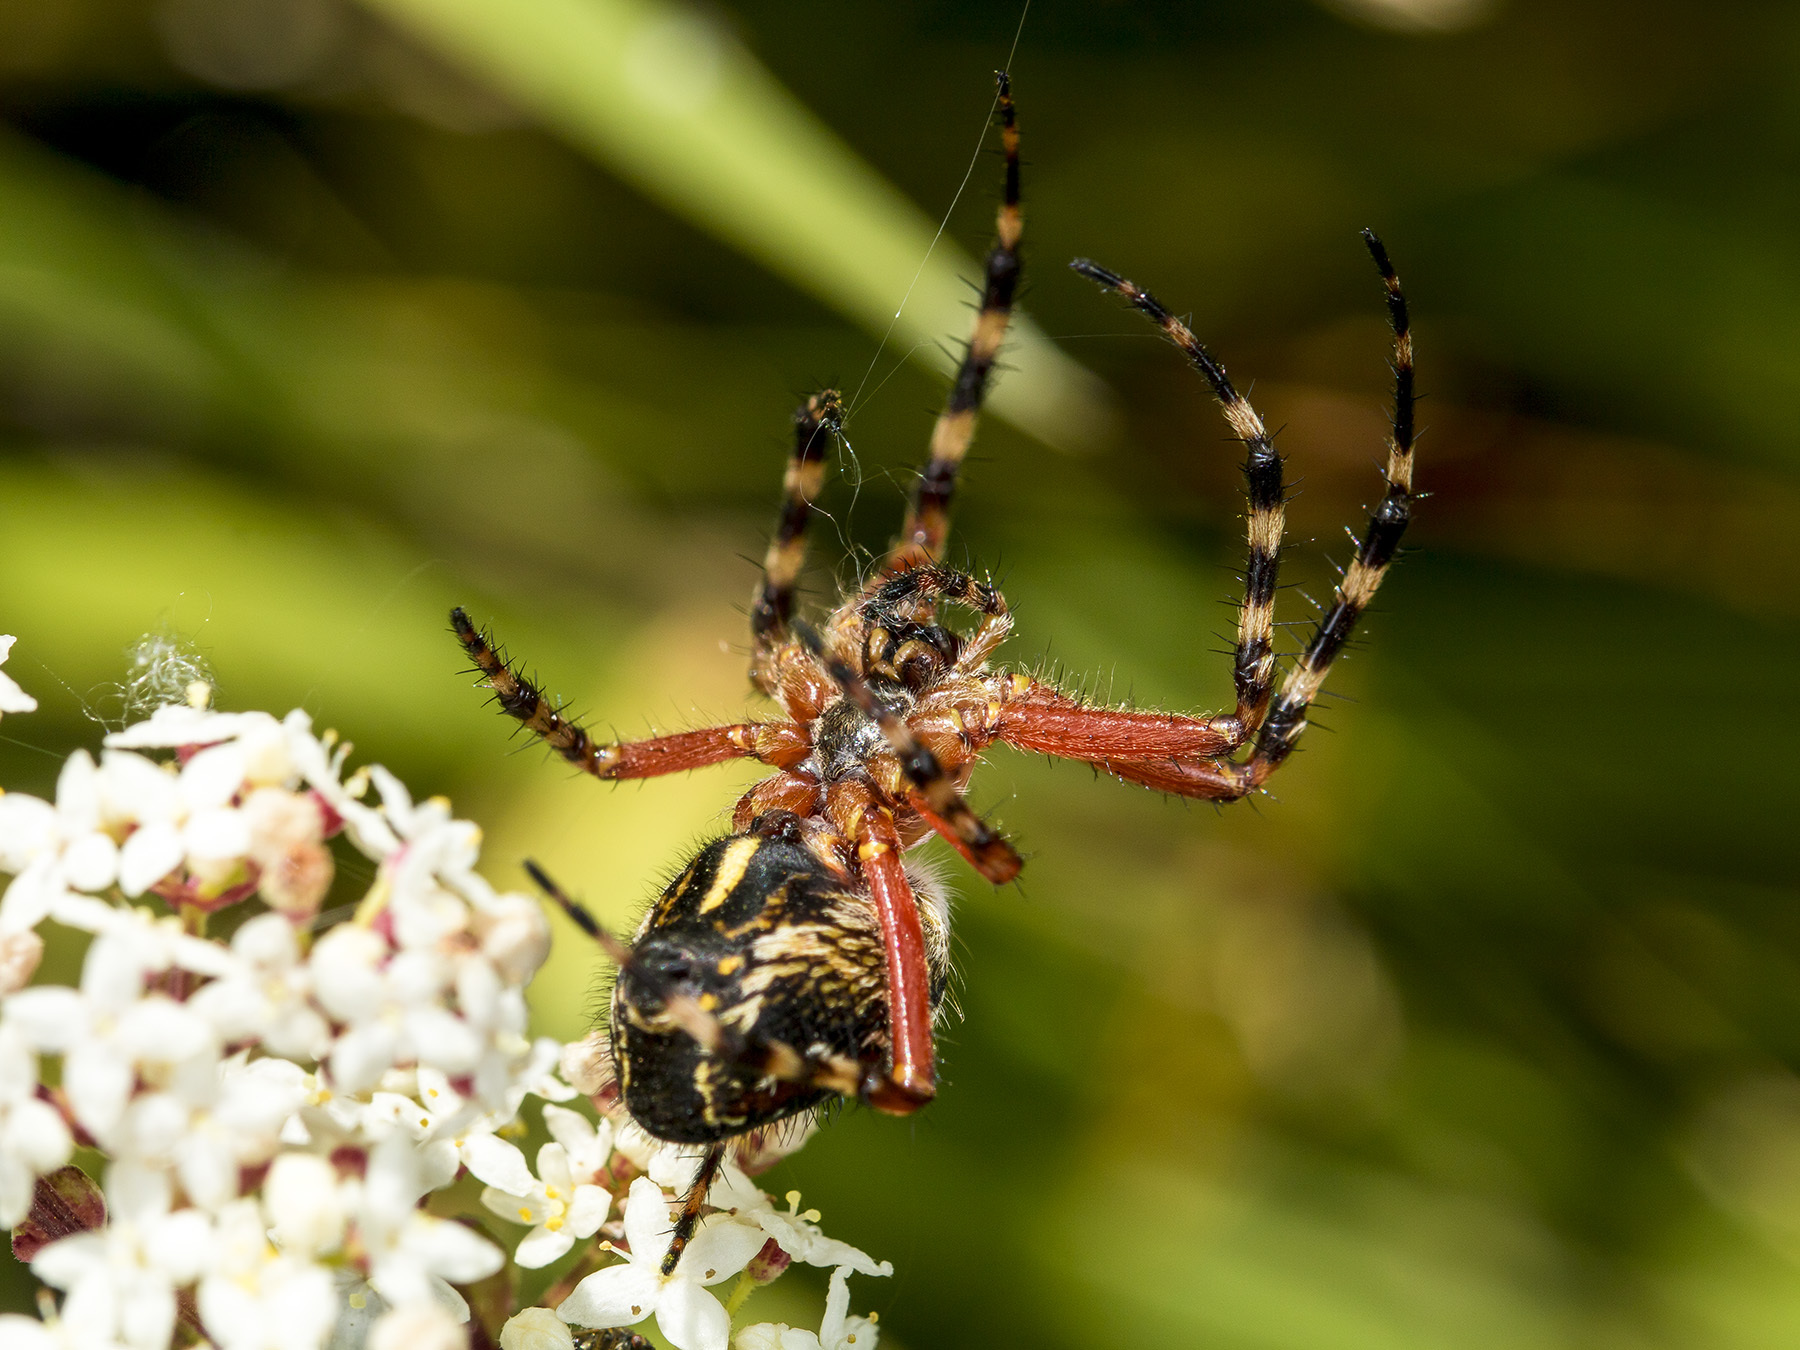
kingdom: Animalia
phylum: Arthropoda
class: Arachnida
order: Araneae
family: Araneidae
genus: Aculepeira
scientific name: Aculepeira packardi
